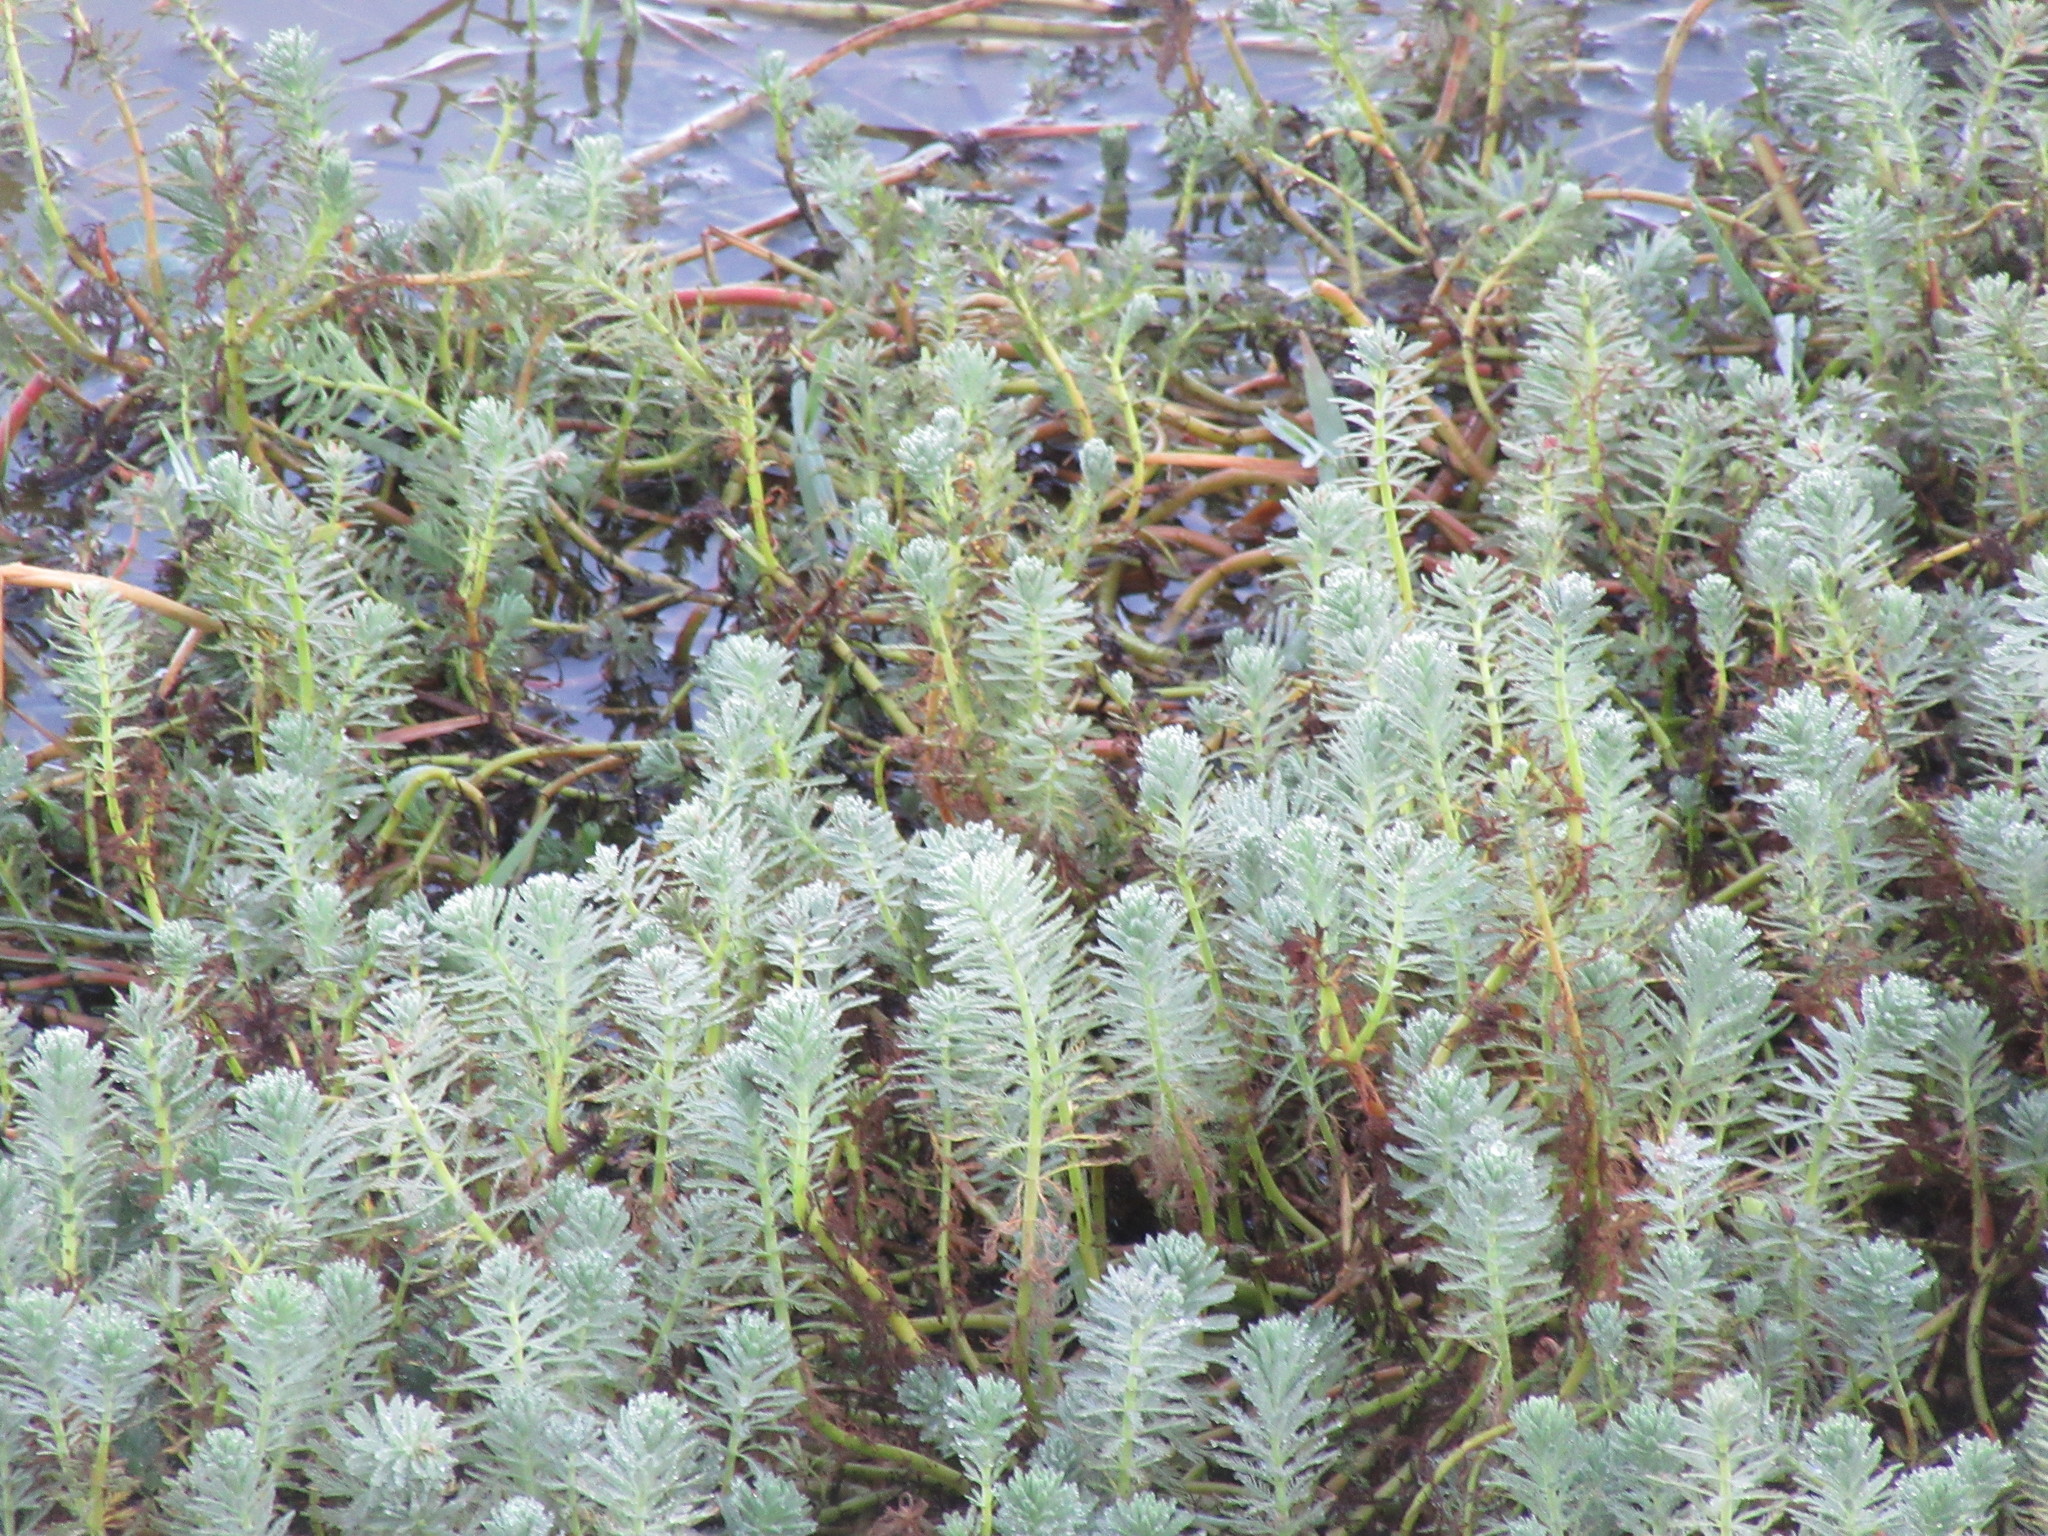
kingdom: Plantae
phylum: Tracheophyta
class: Magnoliopsida
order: Saxifragales
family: Haloragaceae
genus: Myriophyllum
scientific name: Myriophyllum aquaticum
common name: Parrot's feather
